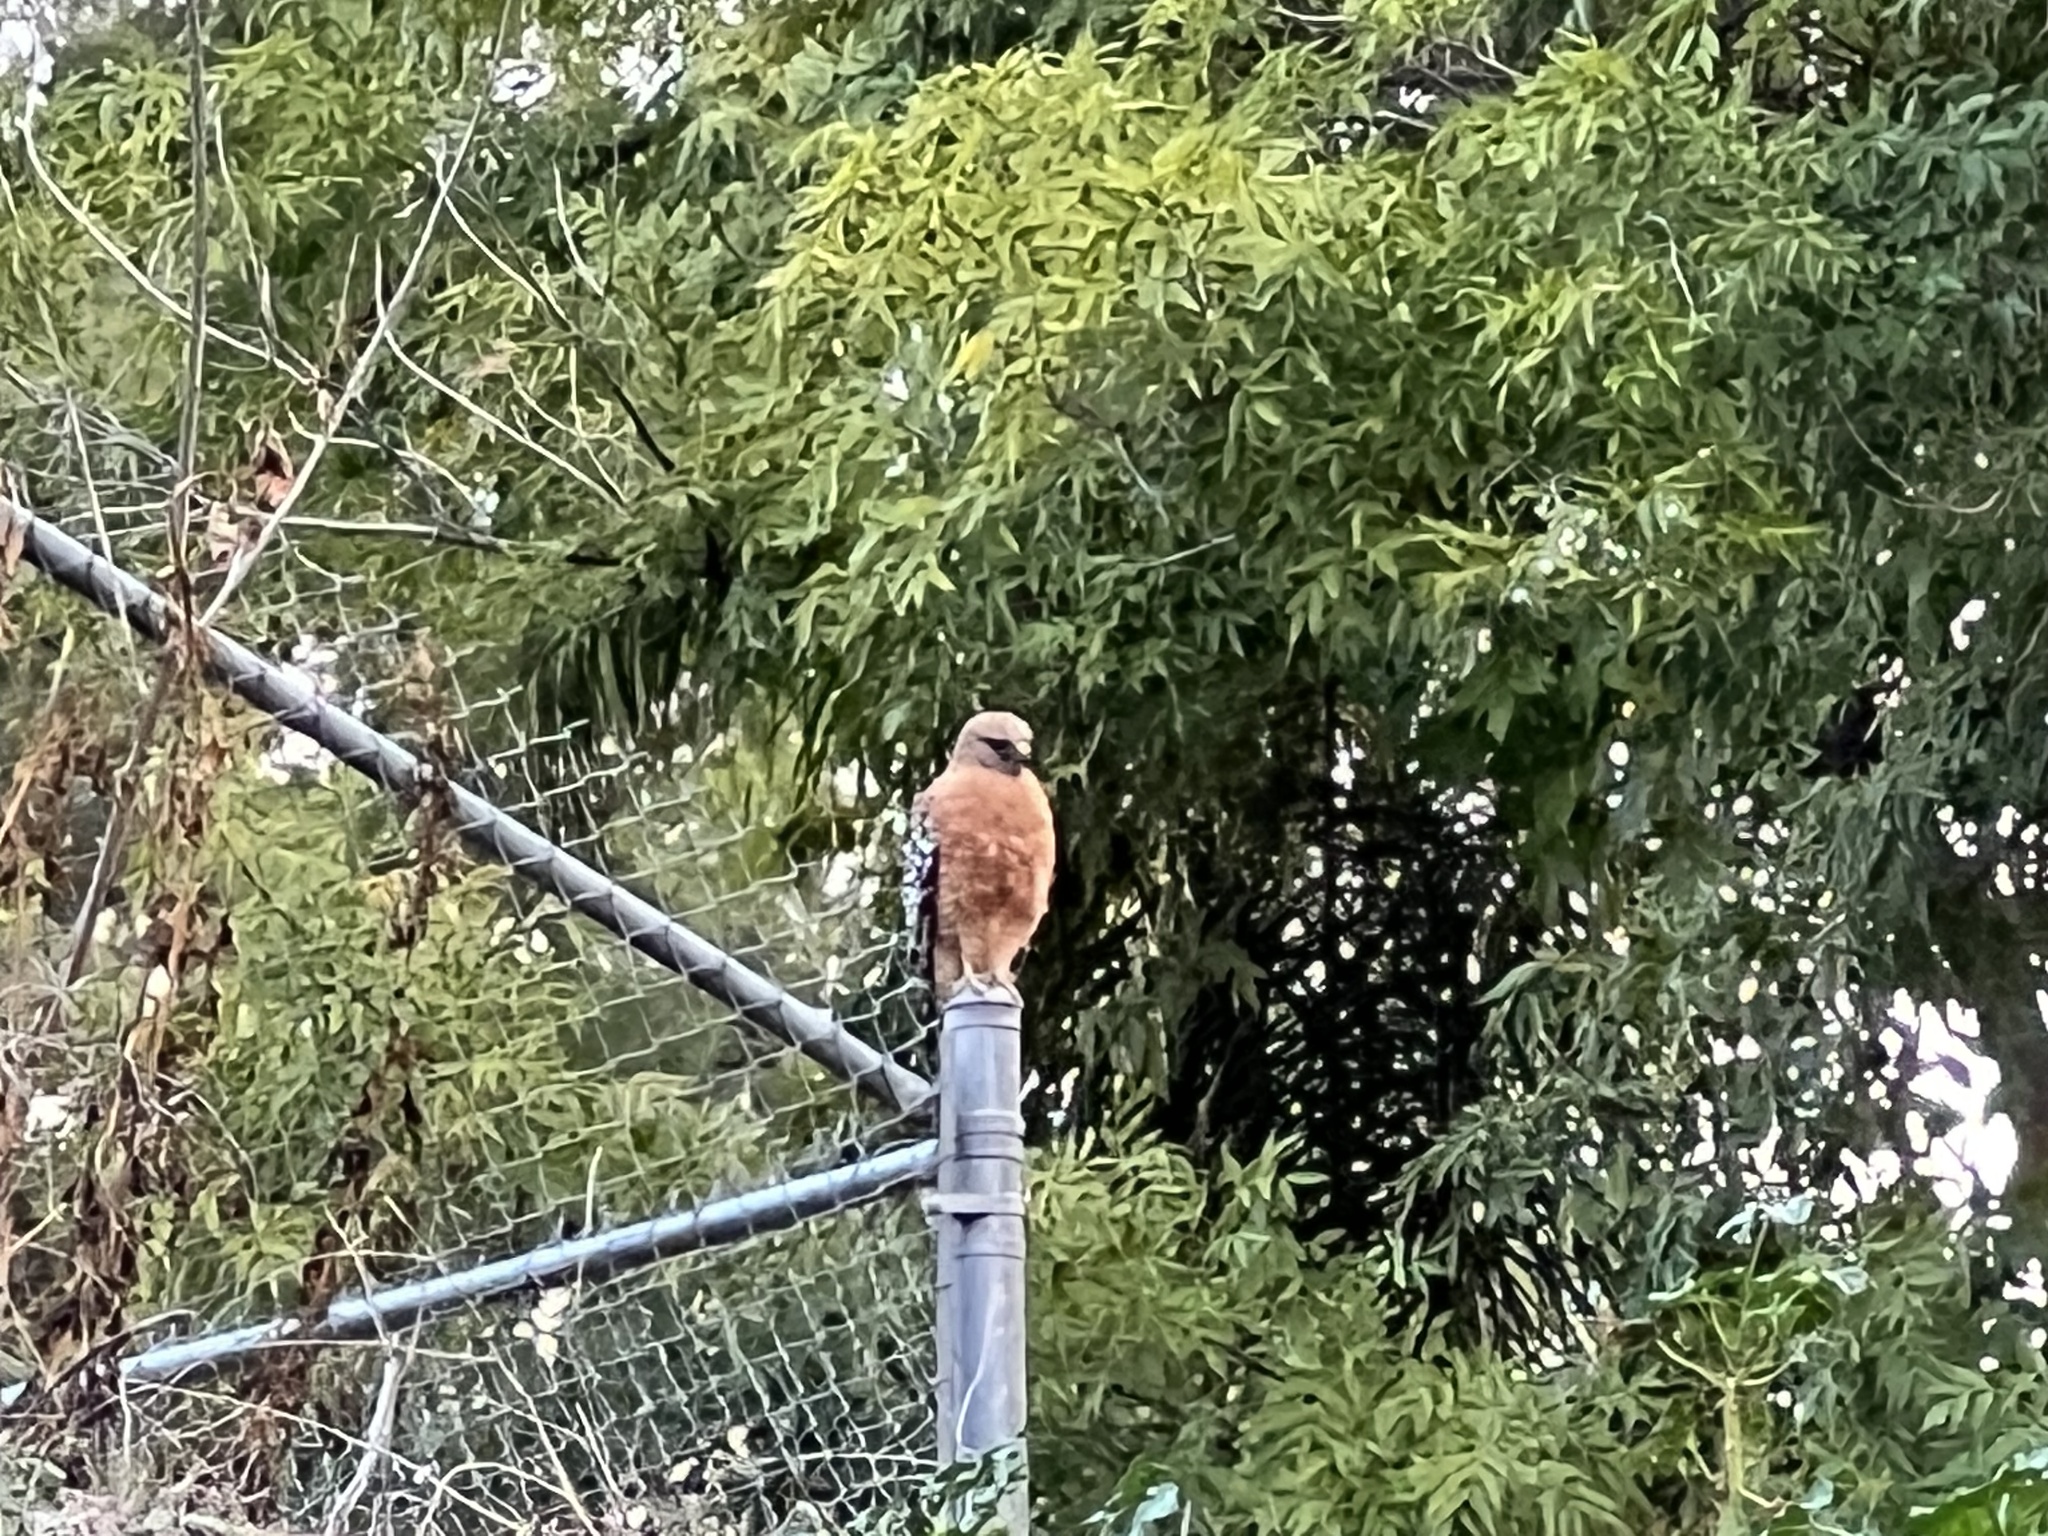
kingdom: Animalia
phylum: Chordata
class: Aves
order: Accipitriformes
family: Accipitridae
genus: Buteo
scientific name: Buteo lineatus
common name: Red-shouldered hawk
